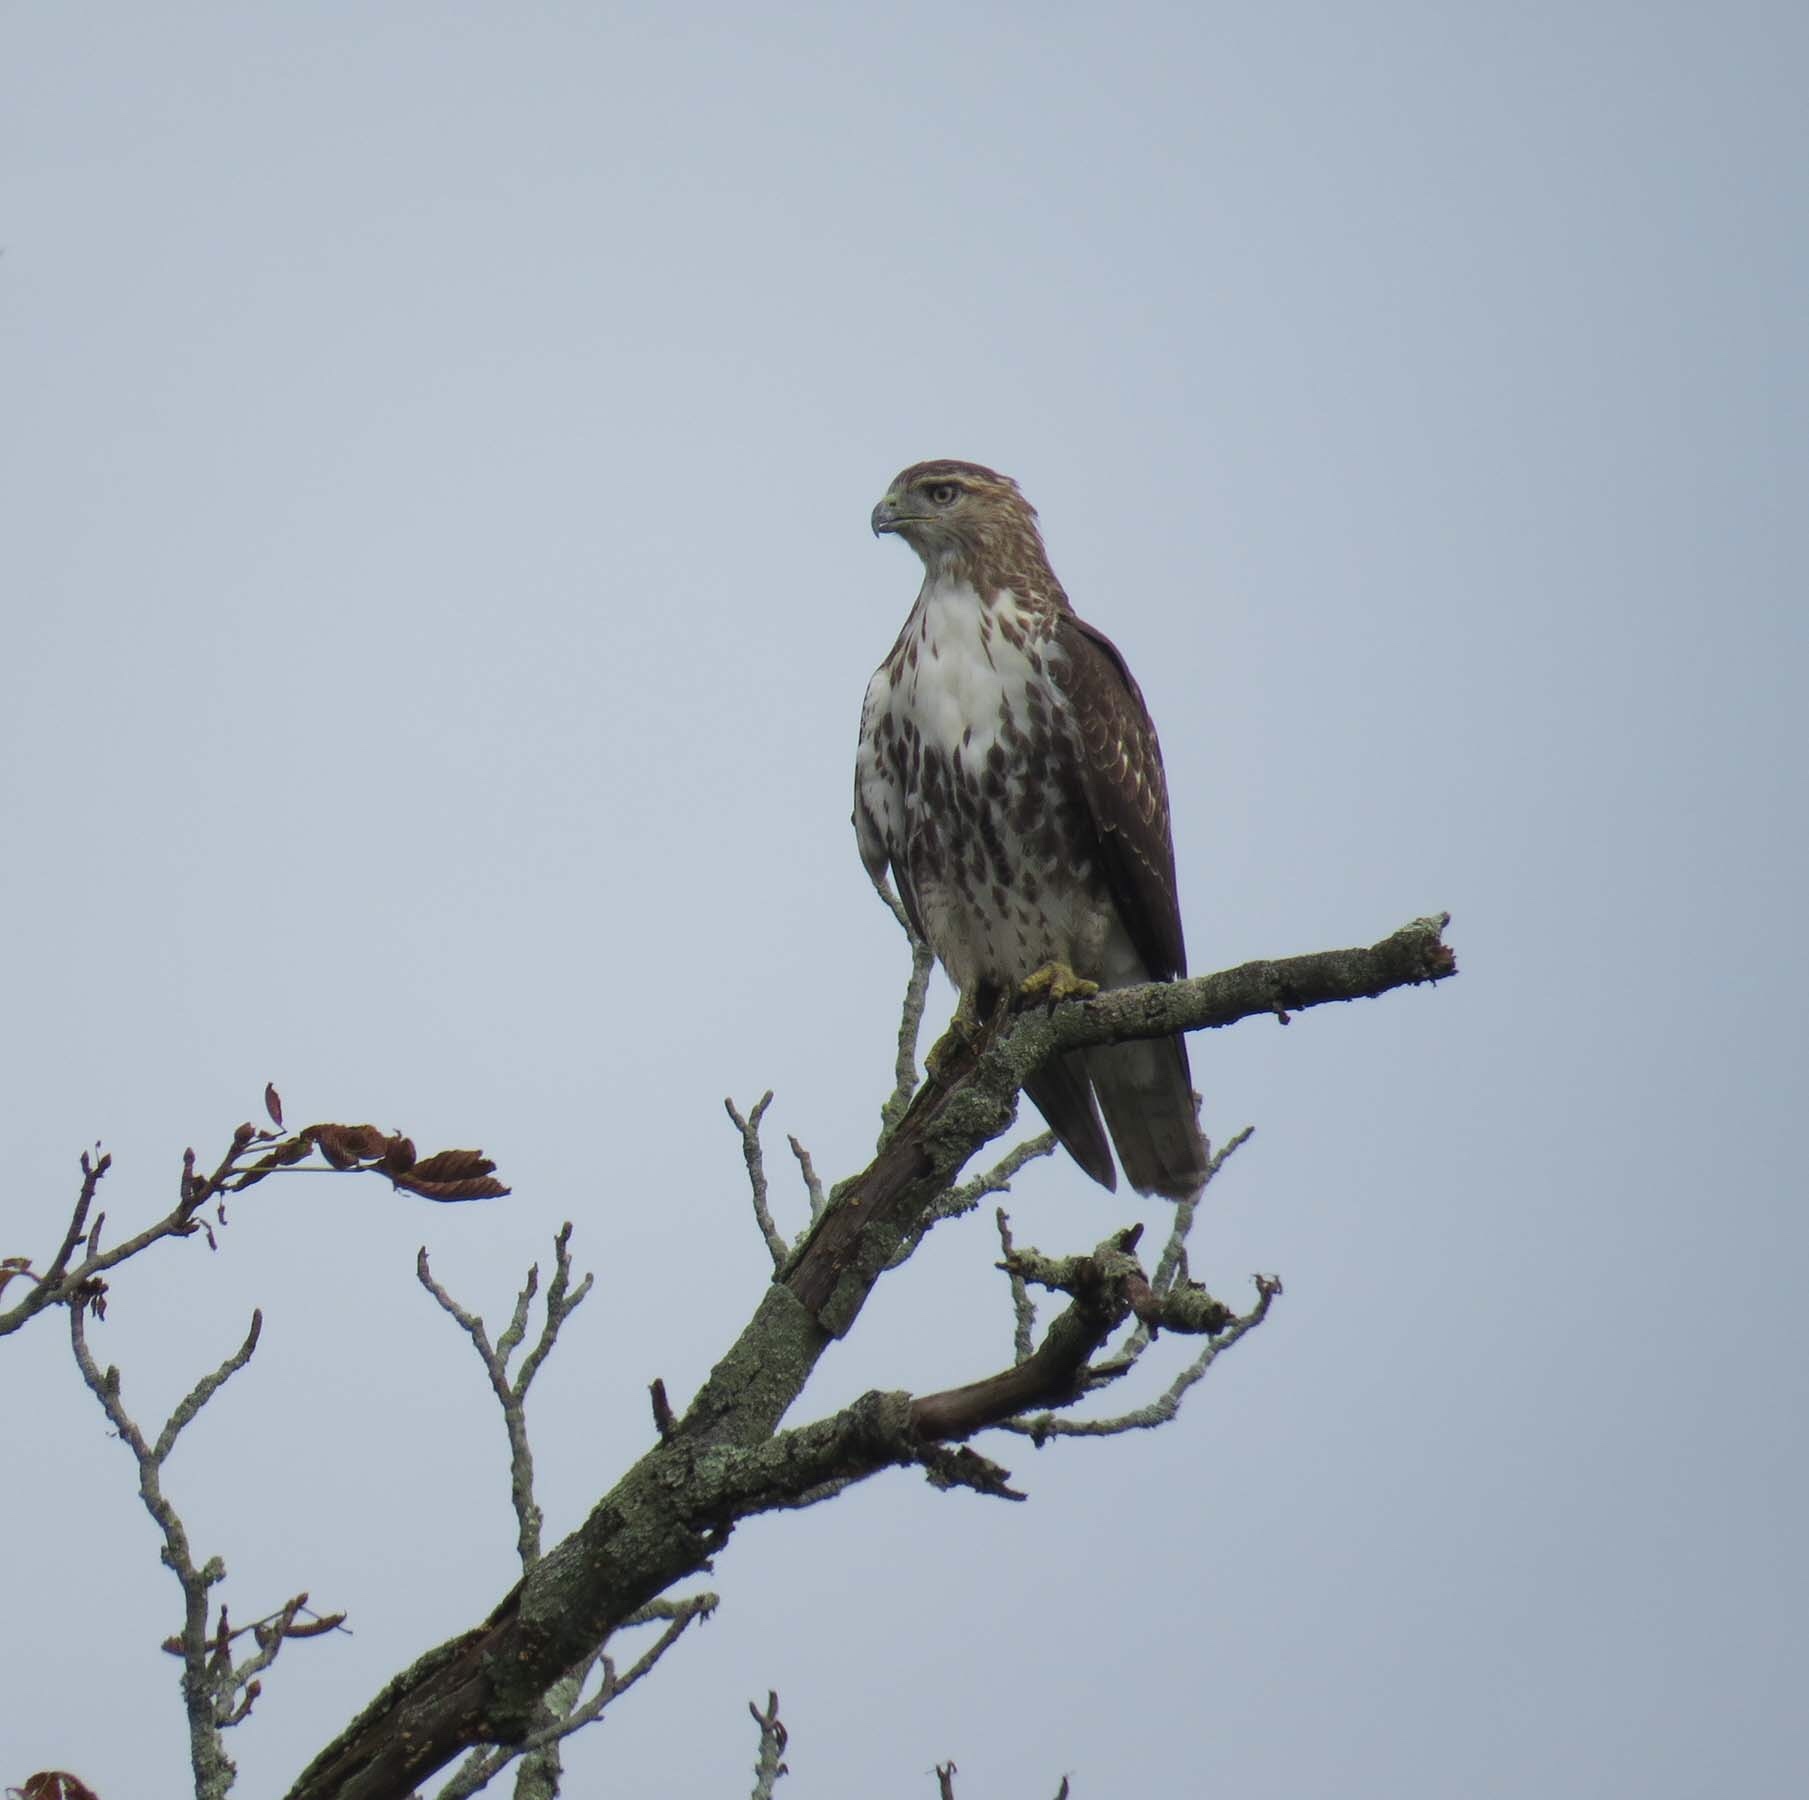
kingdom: Animalia
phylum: Chordata
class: Aves
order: Accipitriformes
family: Accipitridae
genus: Buteo
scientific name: Buteo jamaicensis
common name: Red-tailed hawk
